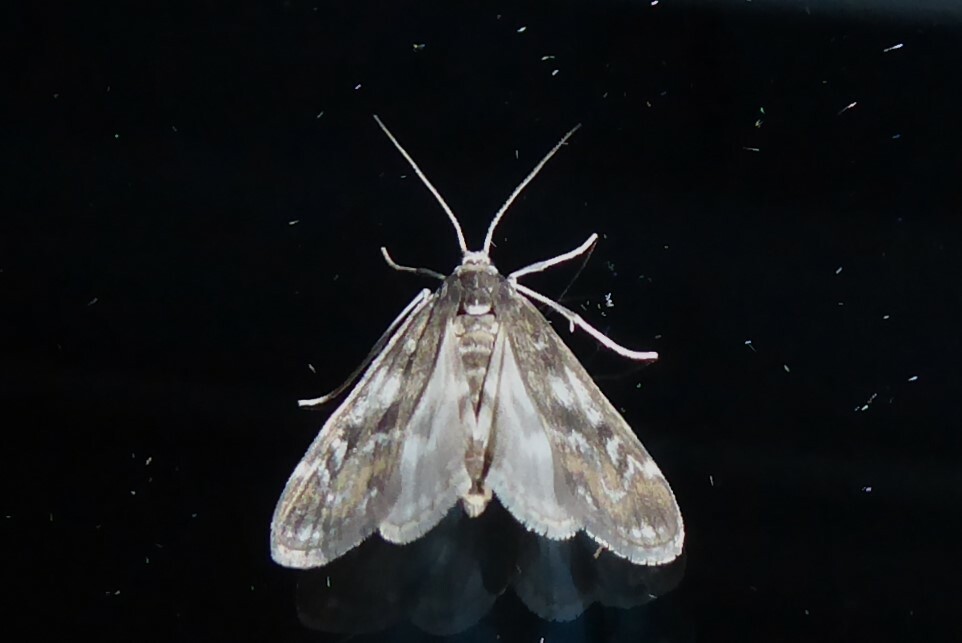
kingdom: Animalia
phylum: Arthropoda
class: Insecta
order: Lepidoptera
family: Crambidae
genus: Hygraula
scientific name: Hygraula nitens
